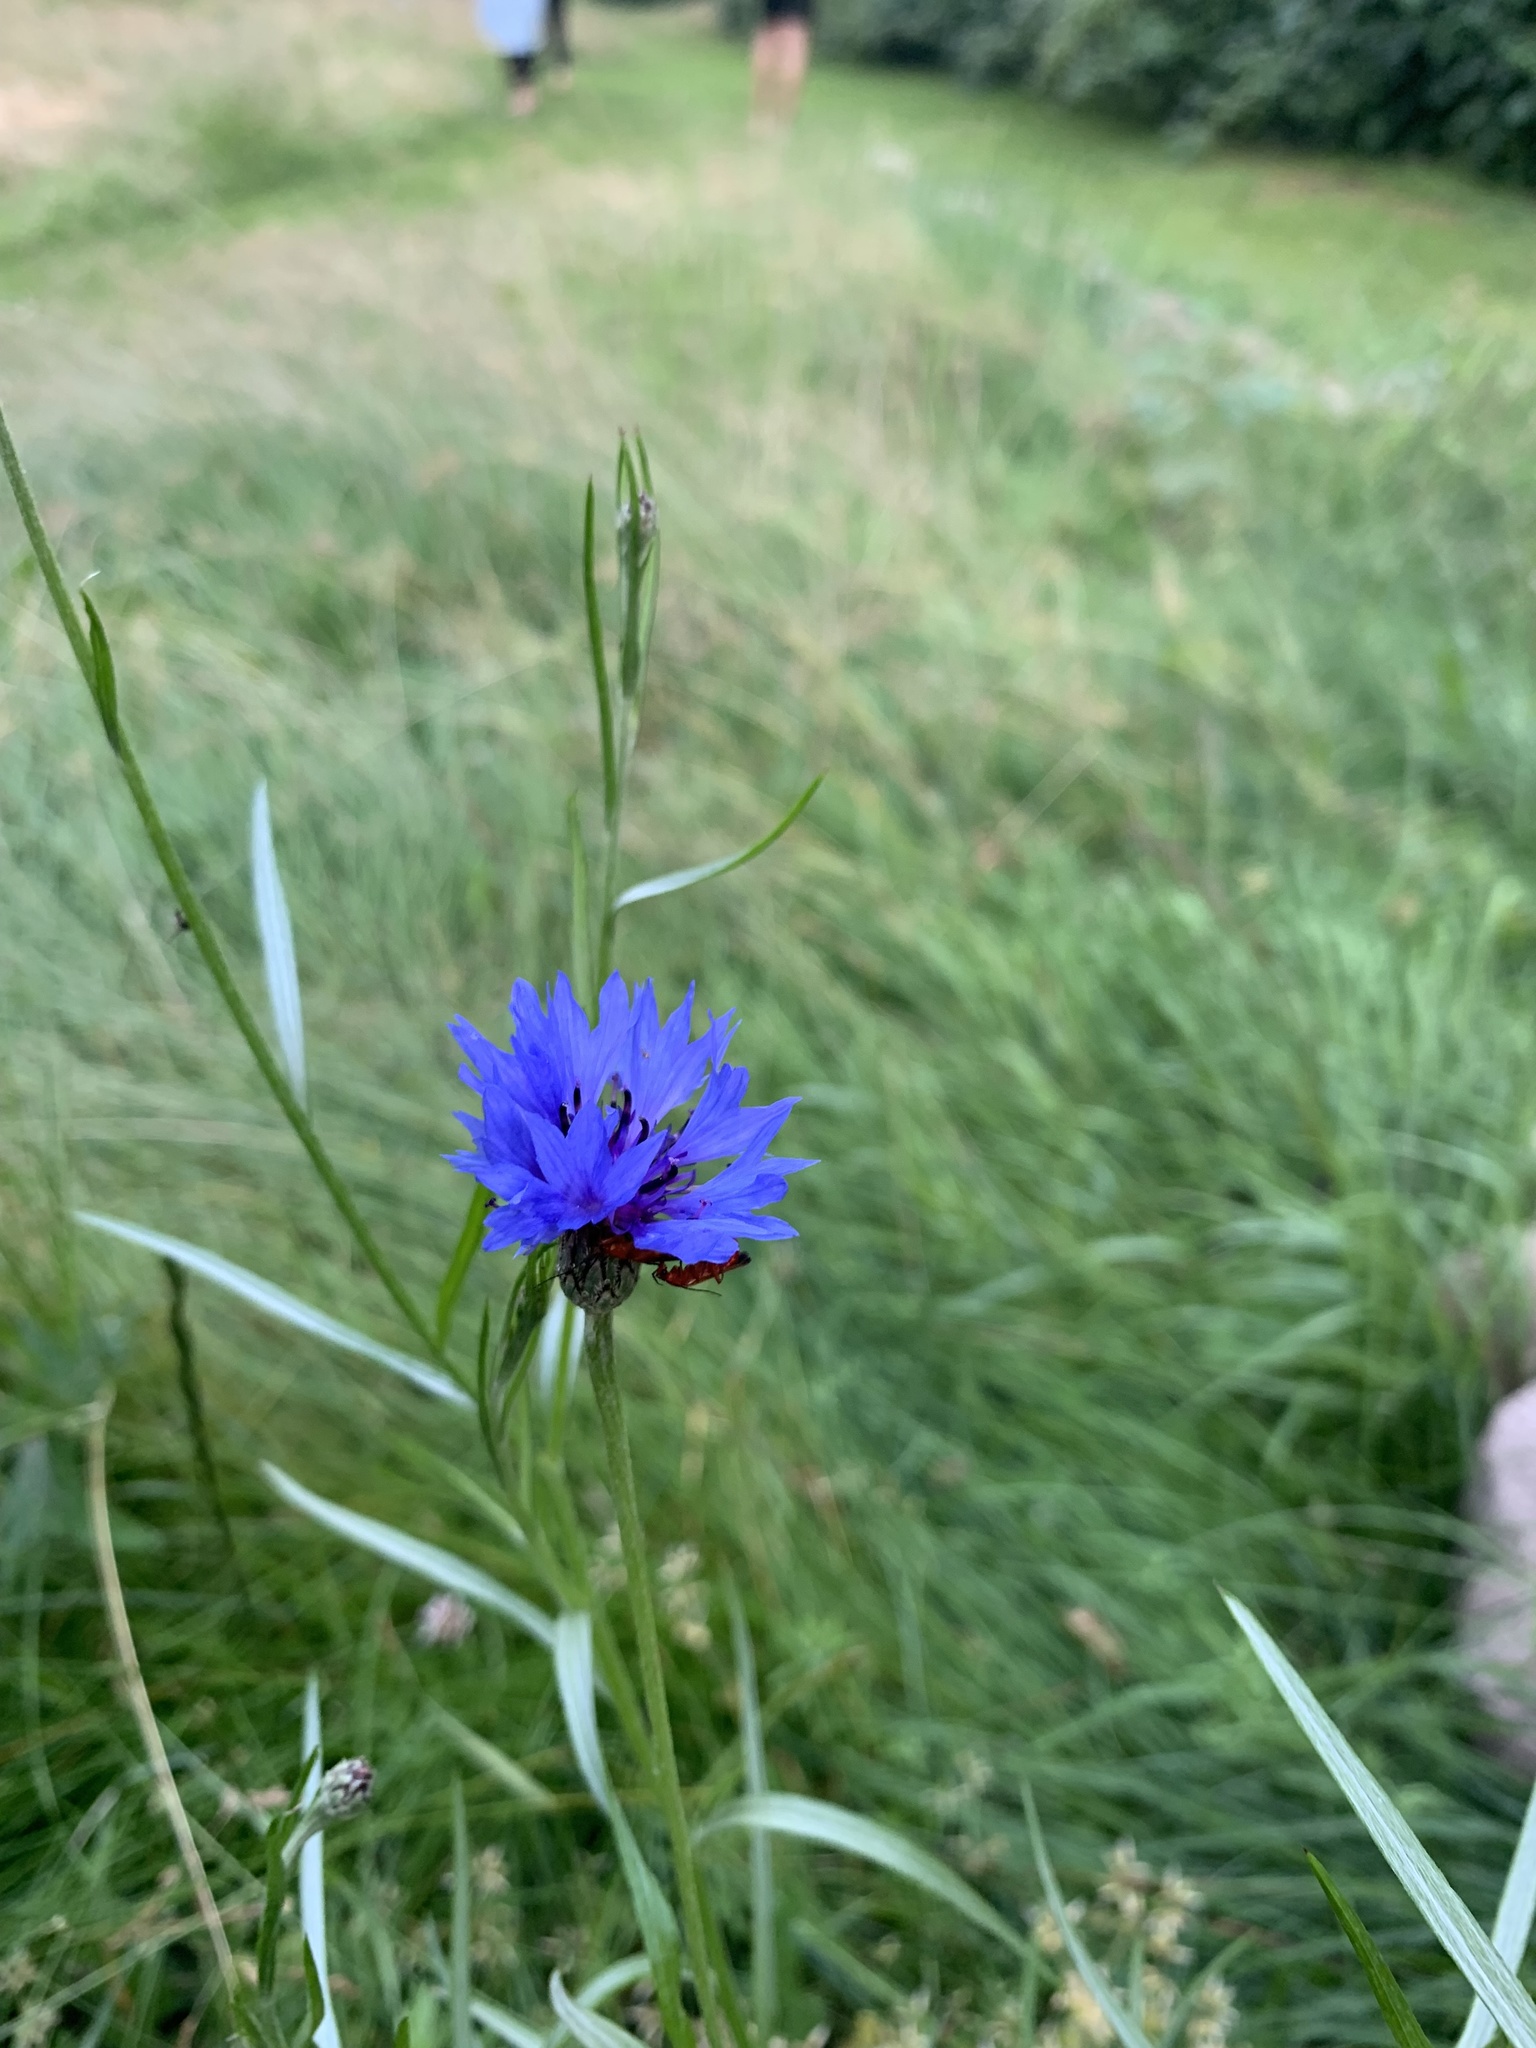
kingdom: Plantae
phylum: Tracheophyta
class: Magnoliopsida
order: Asterales
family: Asteraceae
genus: Centaurea
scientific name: Centaurea cyanus
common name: Cornflower
